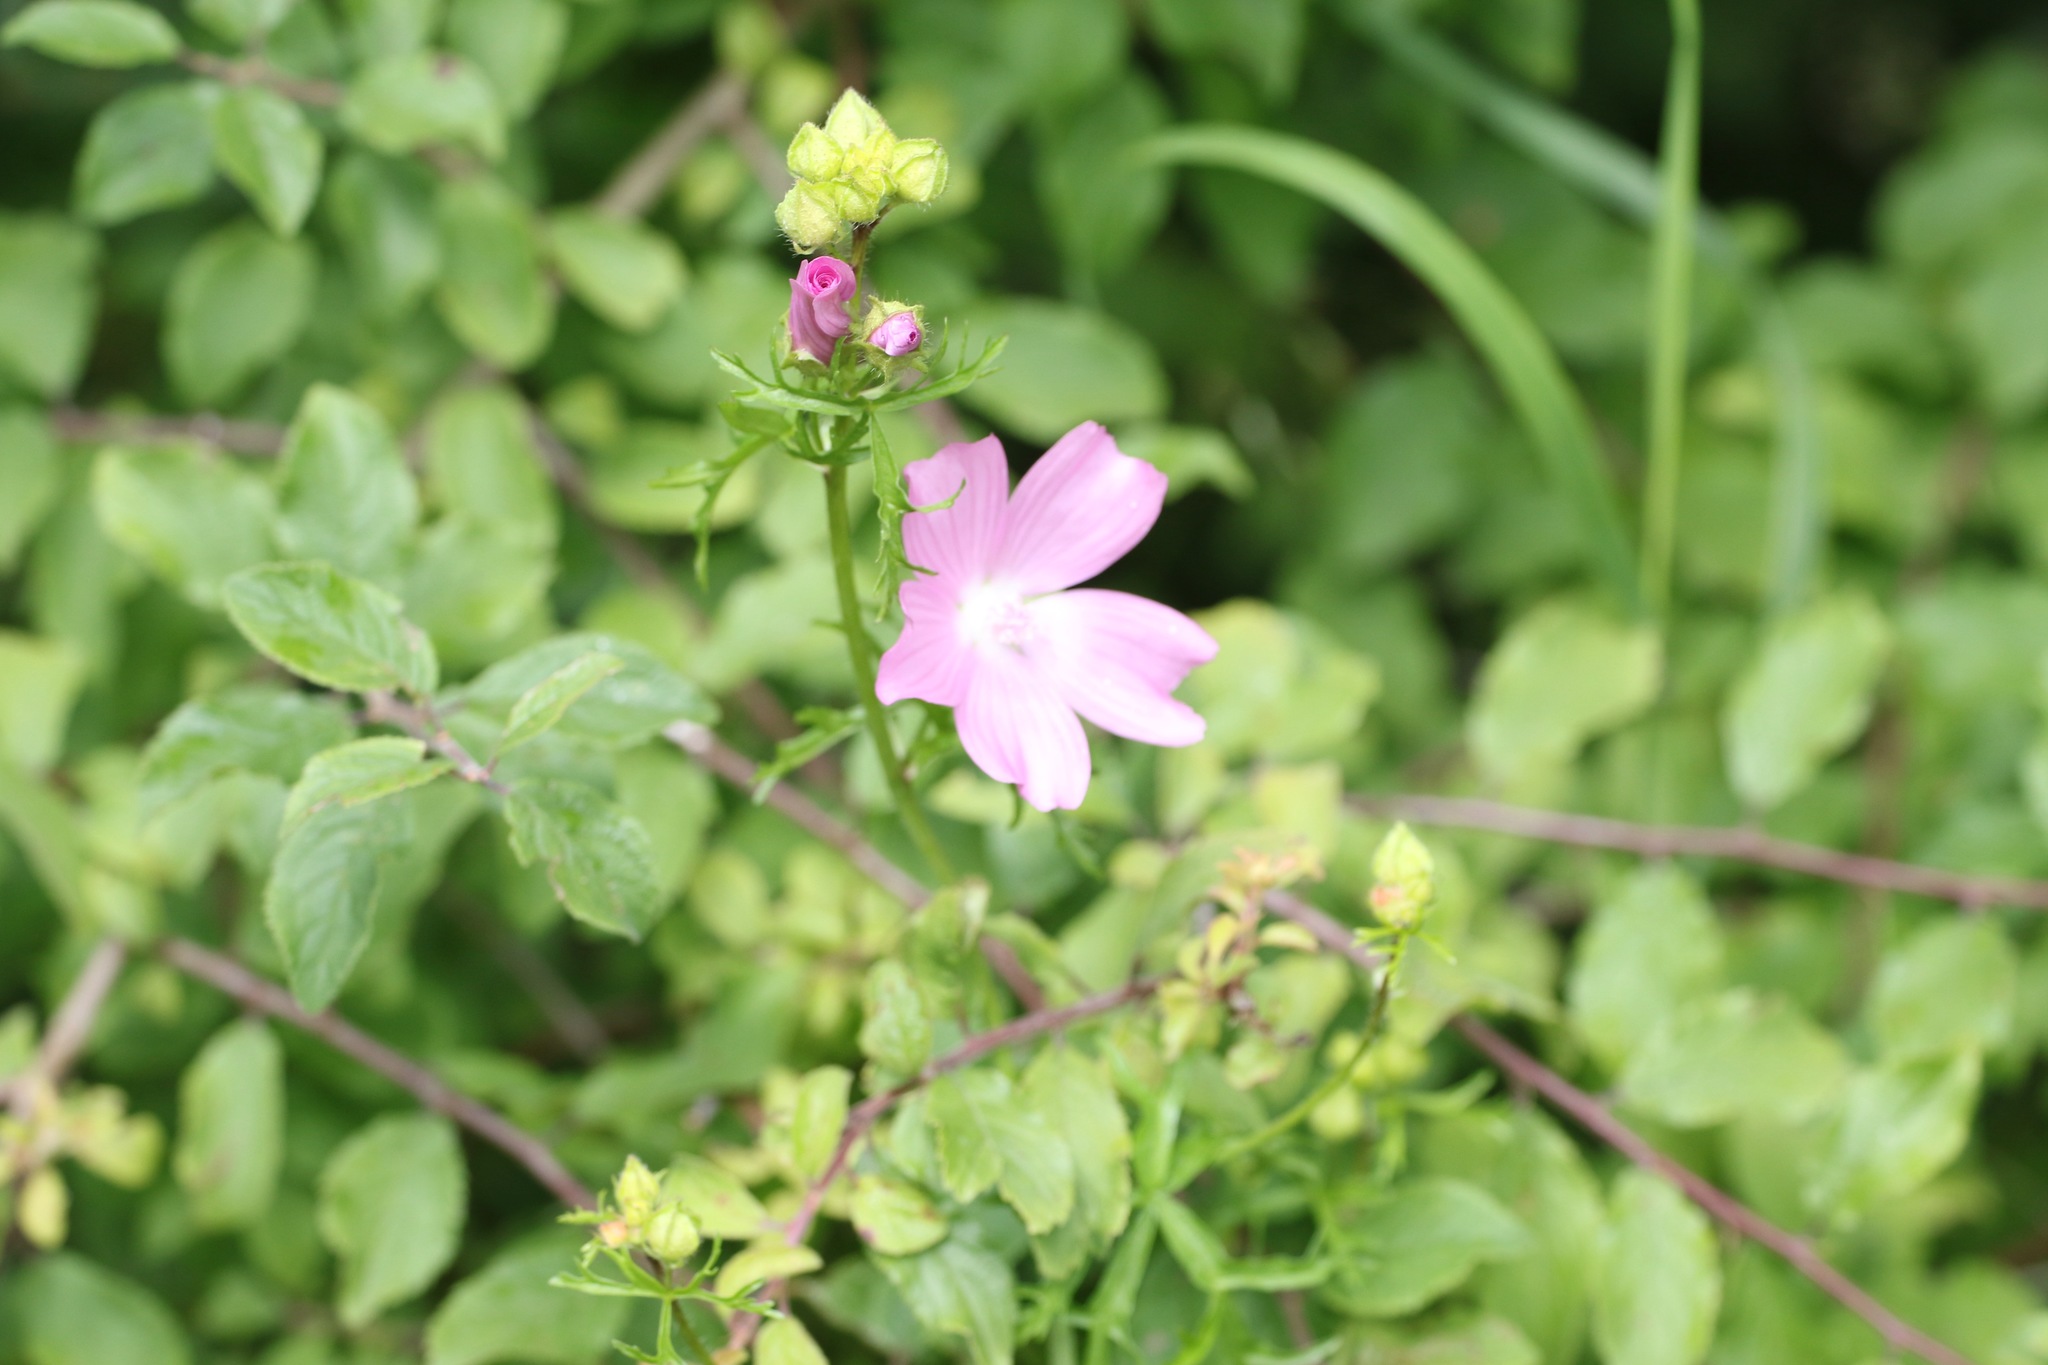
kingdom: Plantae
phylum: Tracheophyta
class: Magnoliopsida
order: Malvales
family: Malvaceae
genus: Malva
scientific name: Malva moschata
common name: Musk mallow
